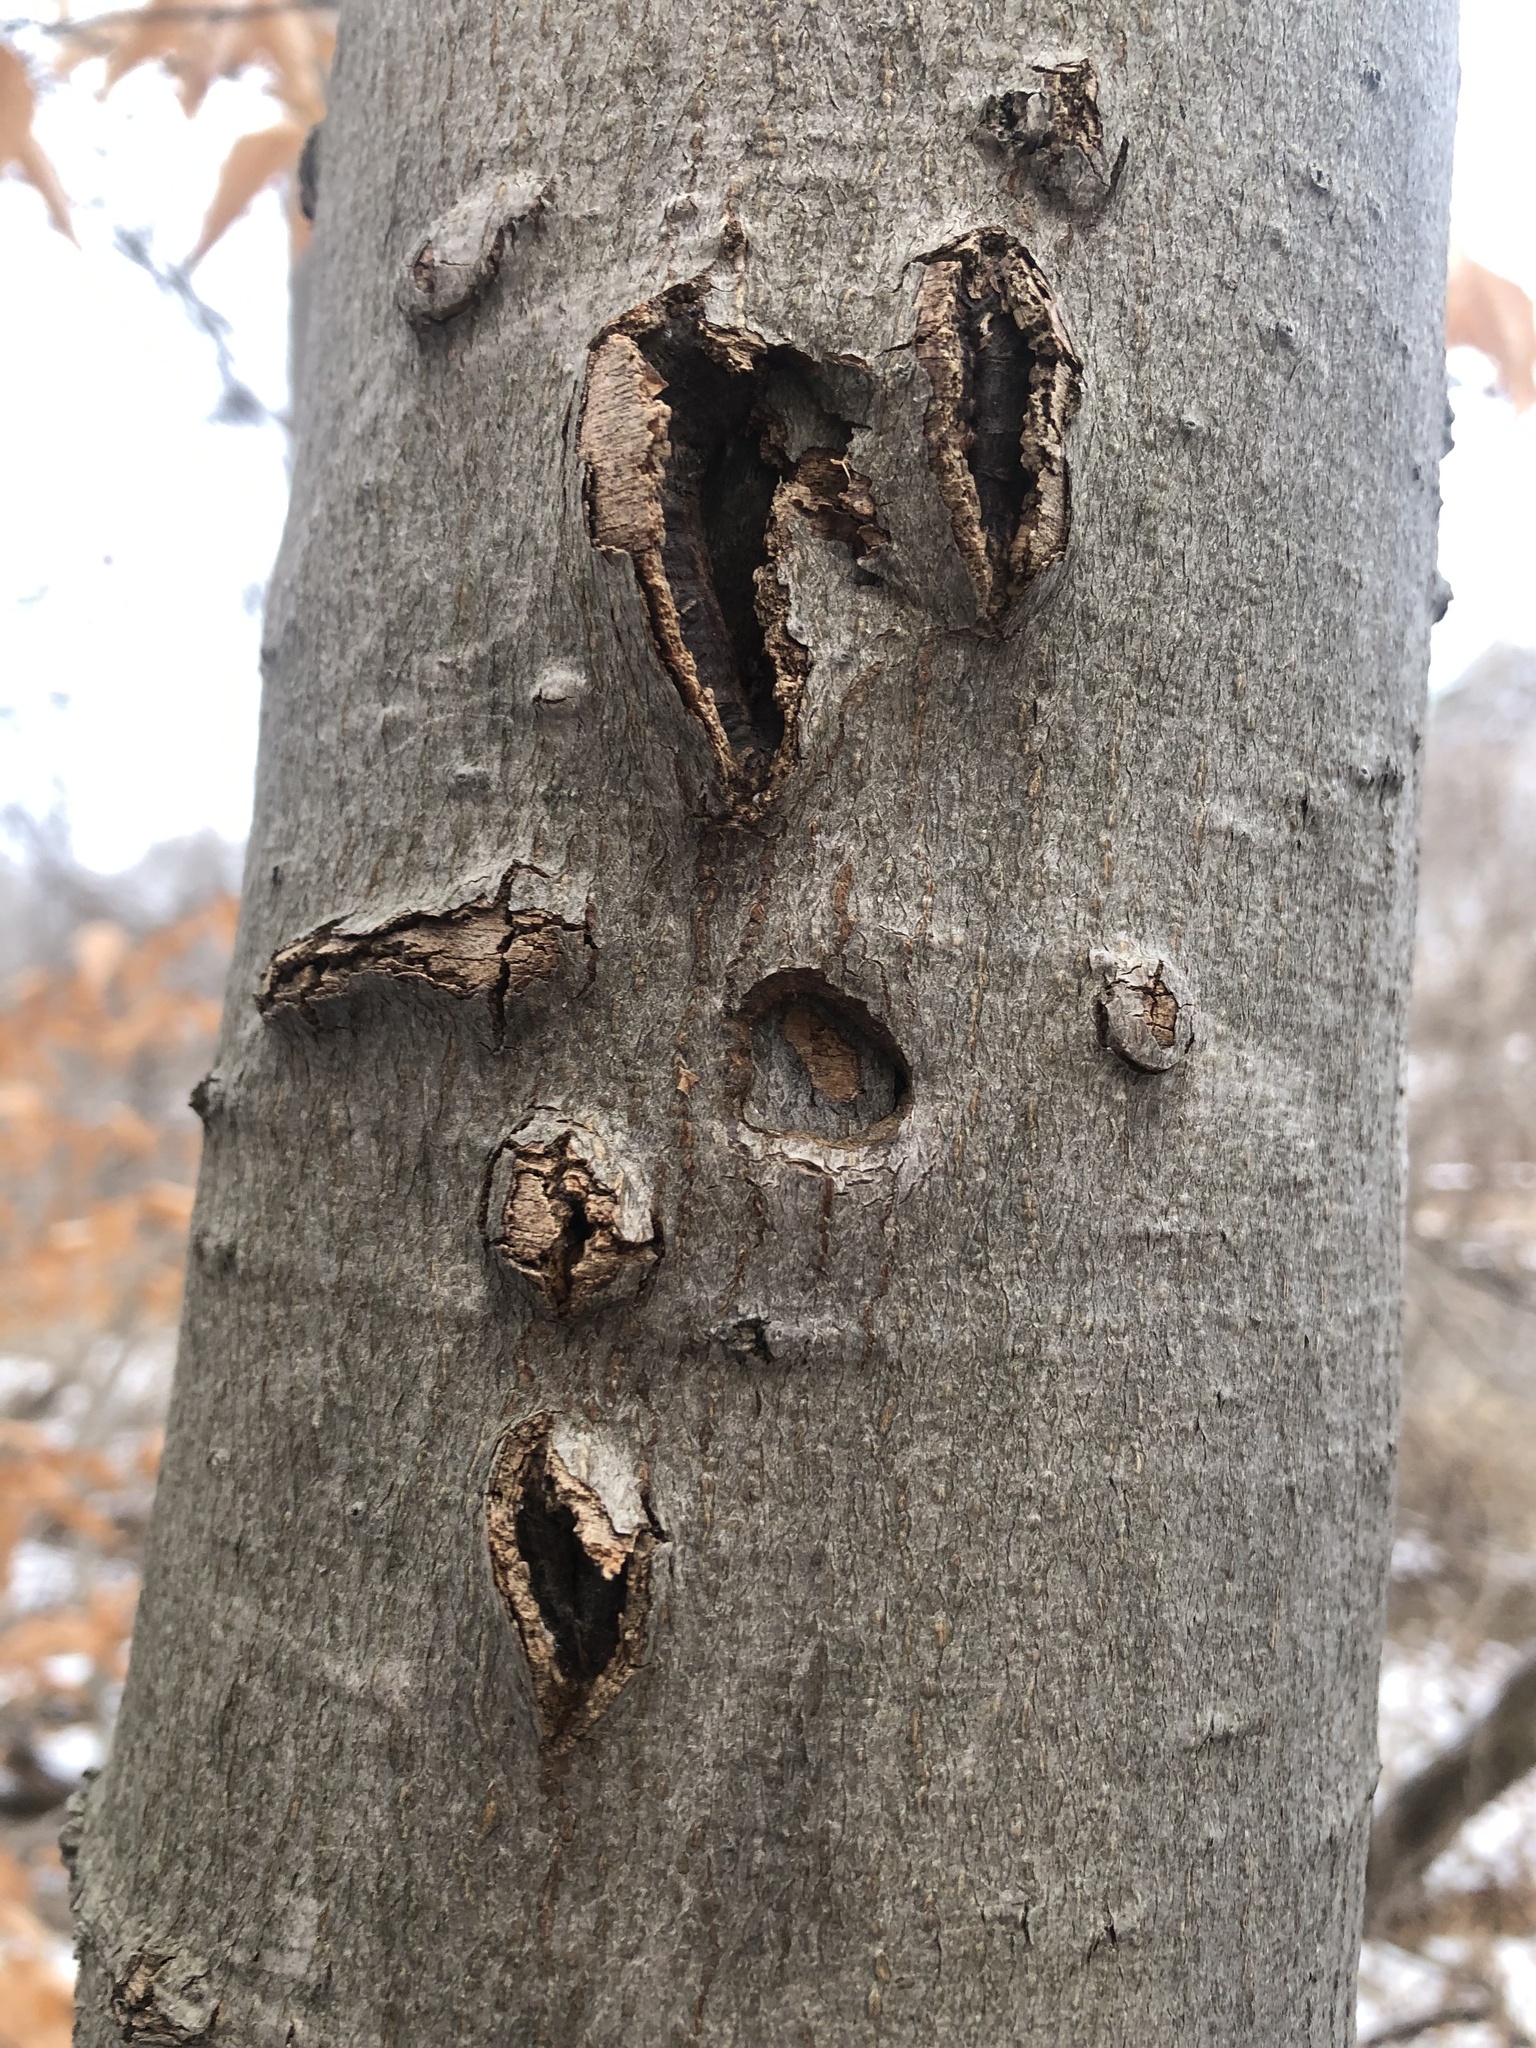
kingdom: Plantae
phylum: Tracheophyta
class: Magnoliopsida
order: Fagales
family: Fagaceae
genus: Fagus
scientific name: Fagus grandifolia
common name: American beech
